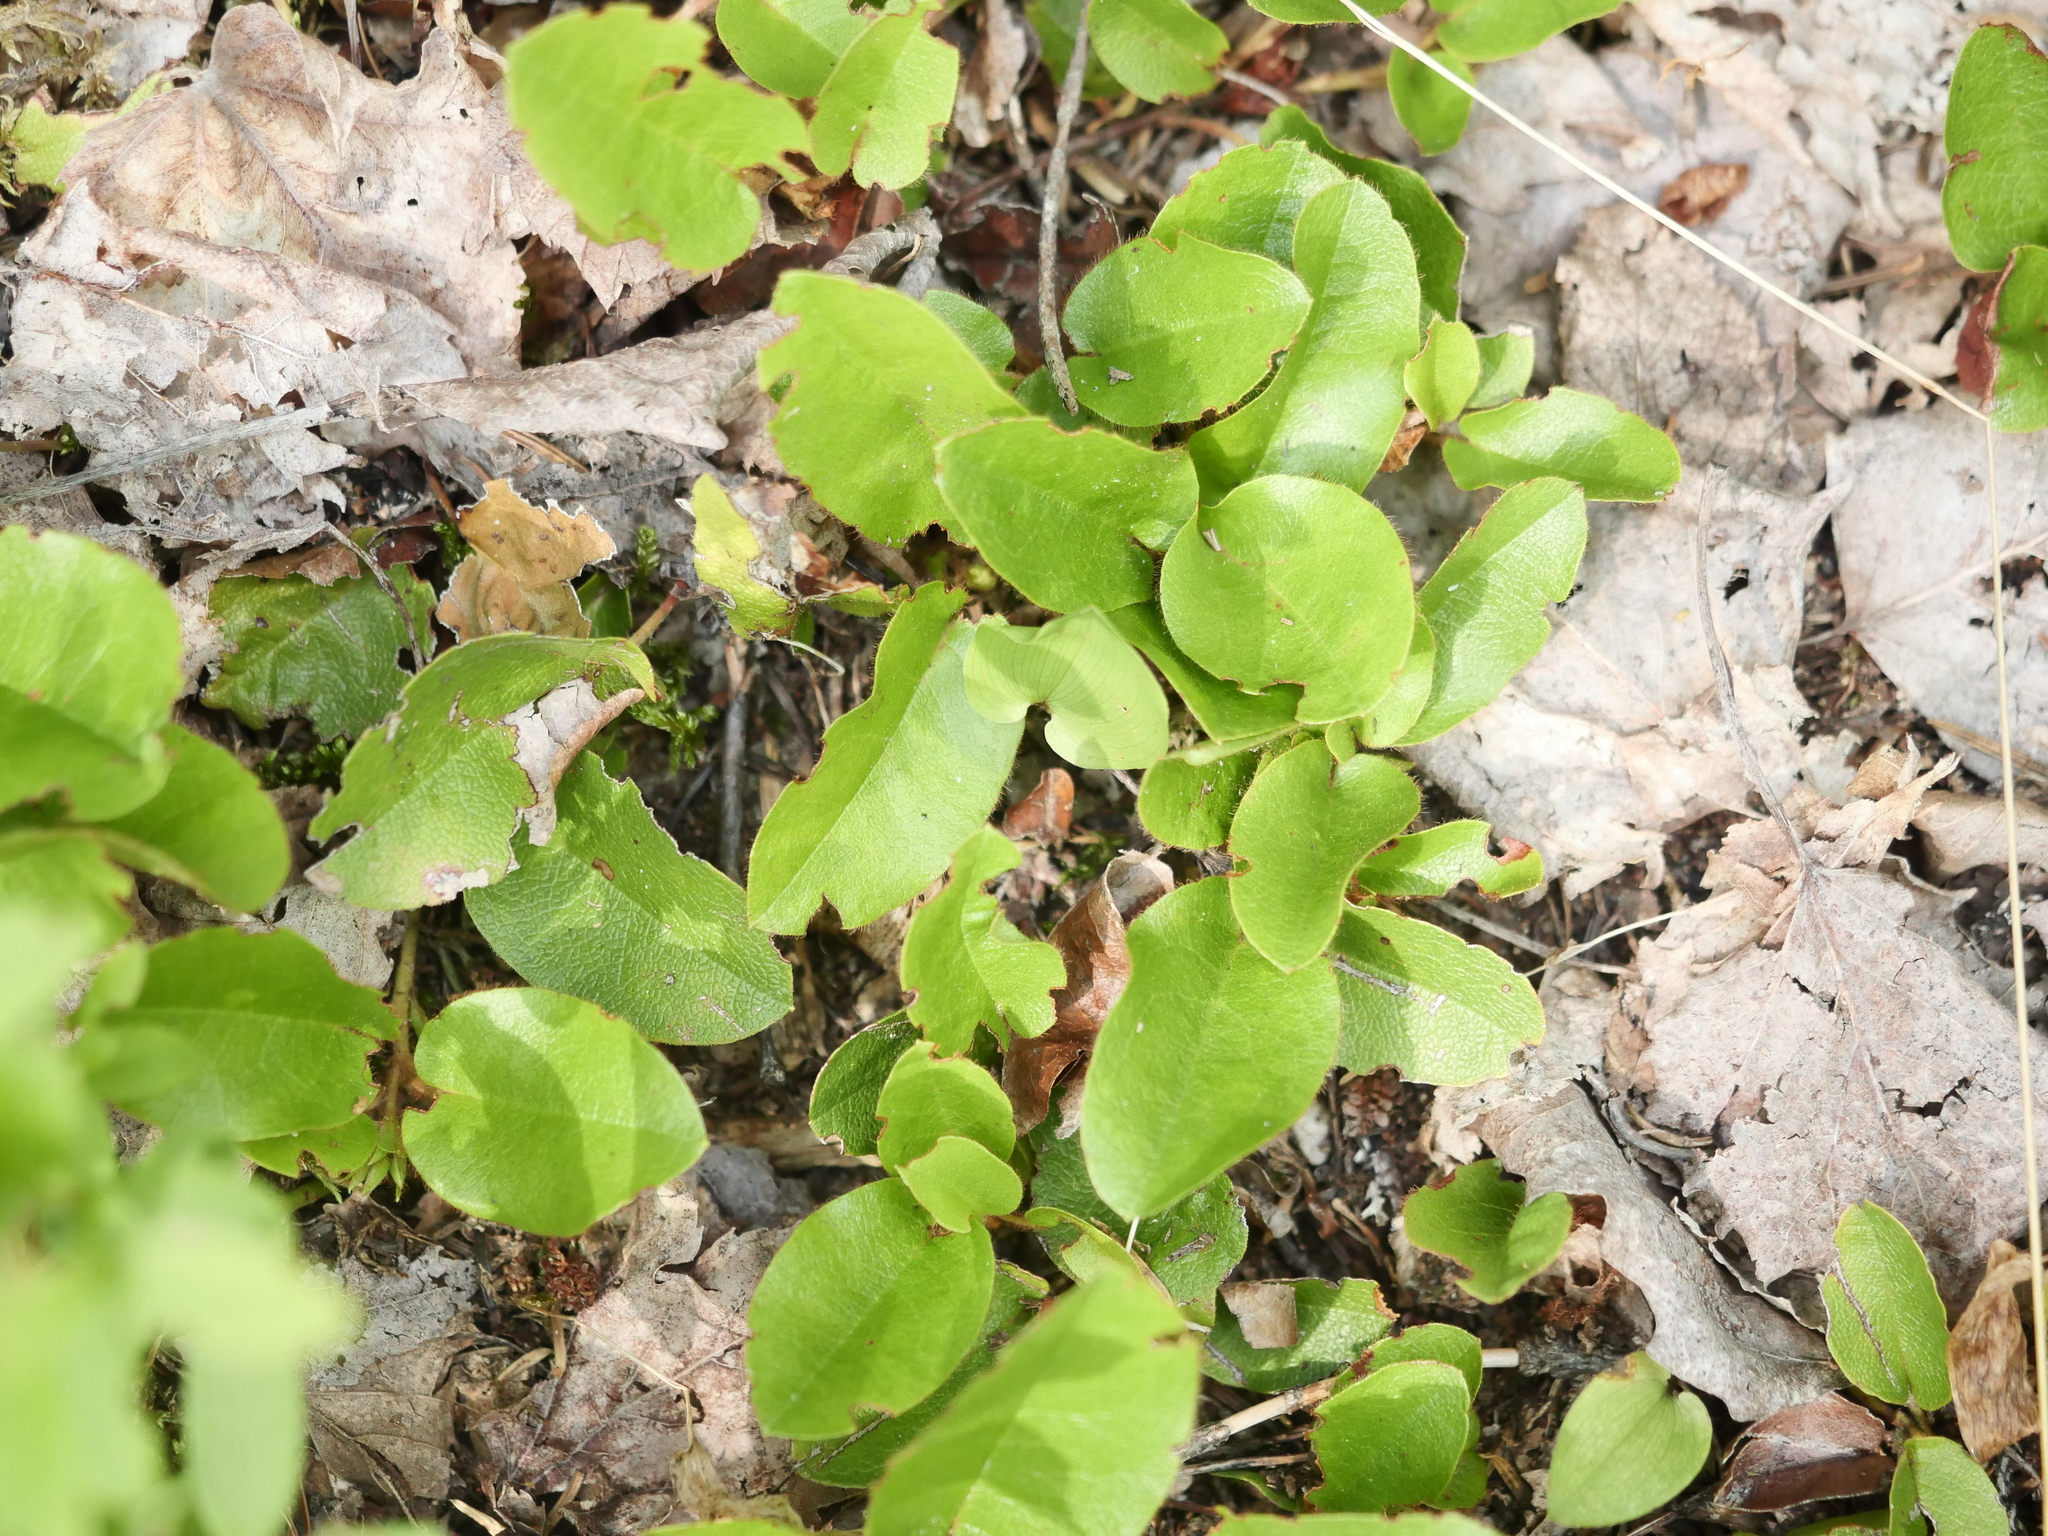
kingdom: Plantae
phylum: Tracheophyta
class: Magnoliopsida
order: Ericales
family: Ericaceae
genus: Epigaea
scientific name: Epigaea repens
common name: Gravelroot
